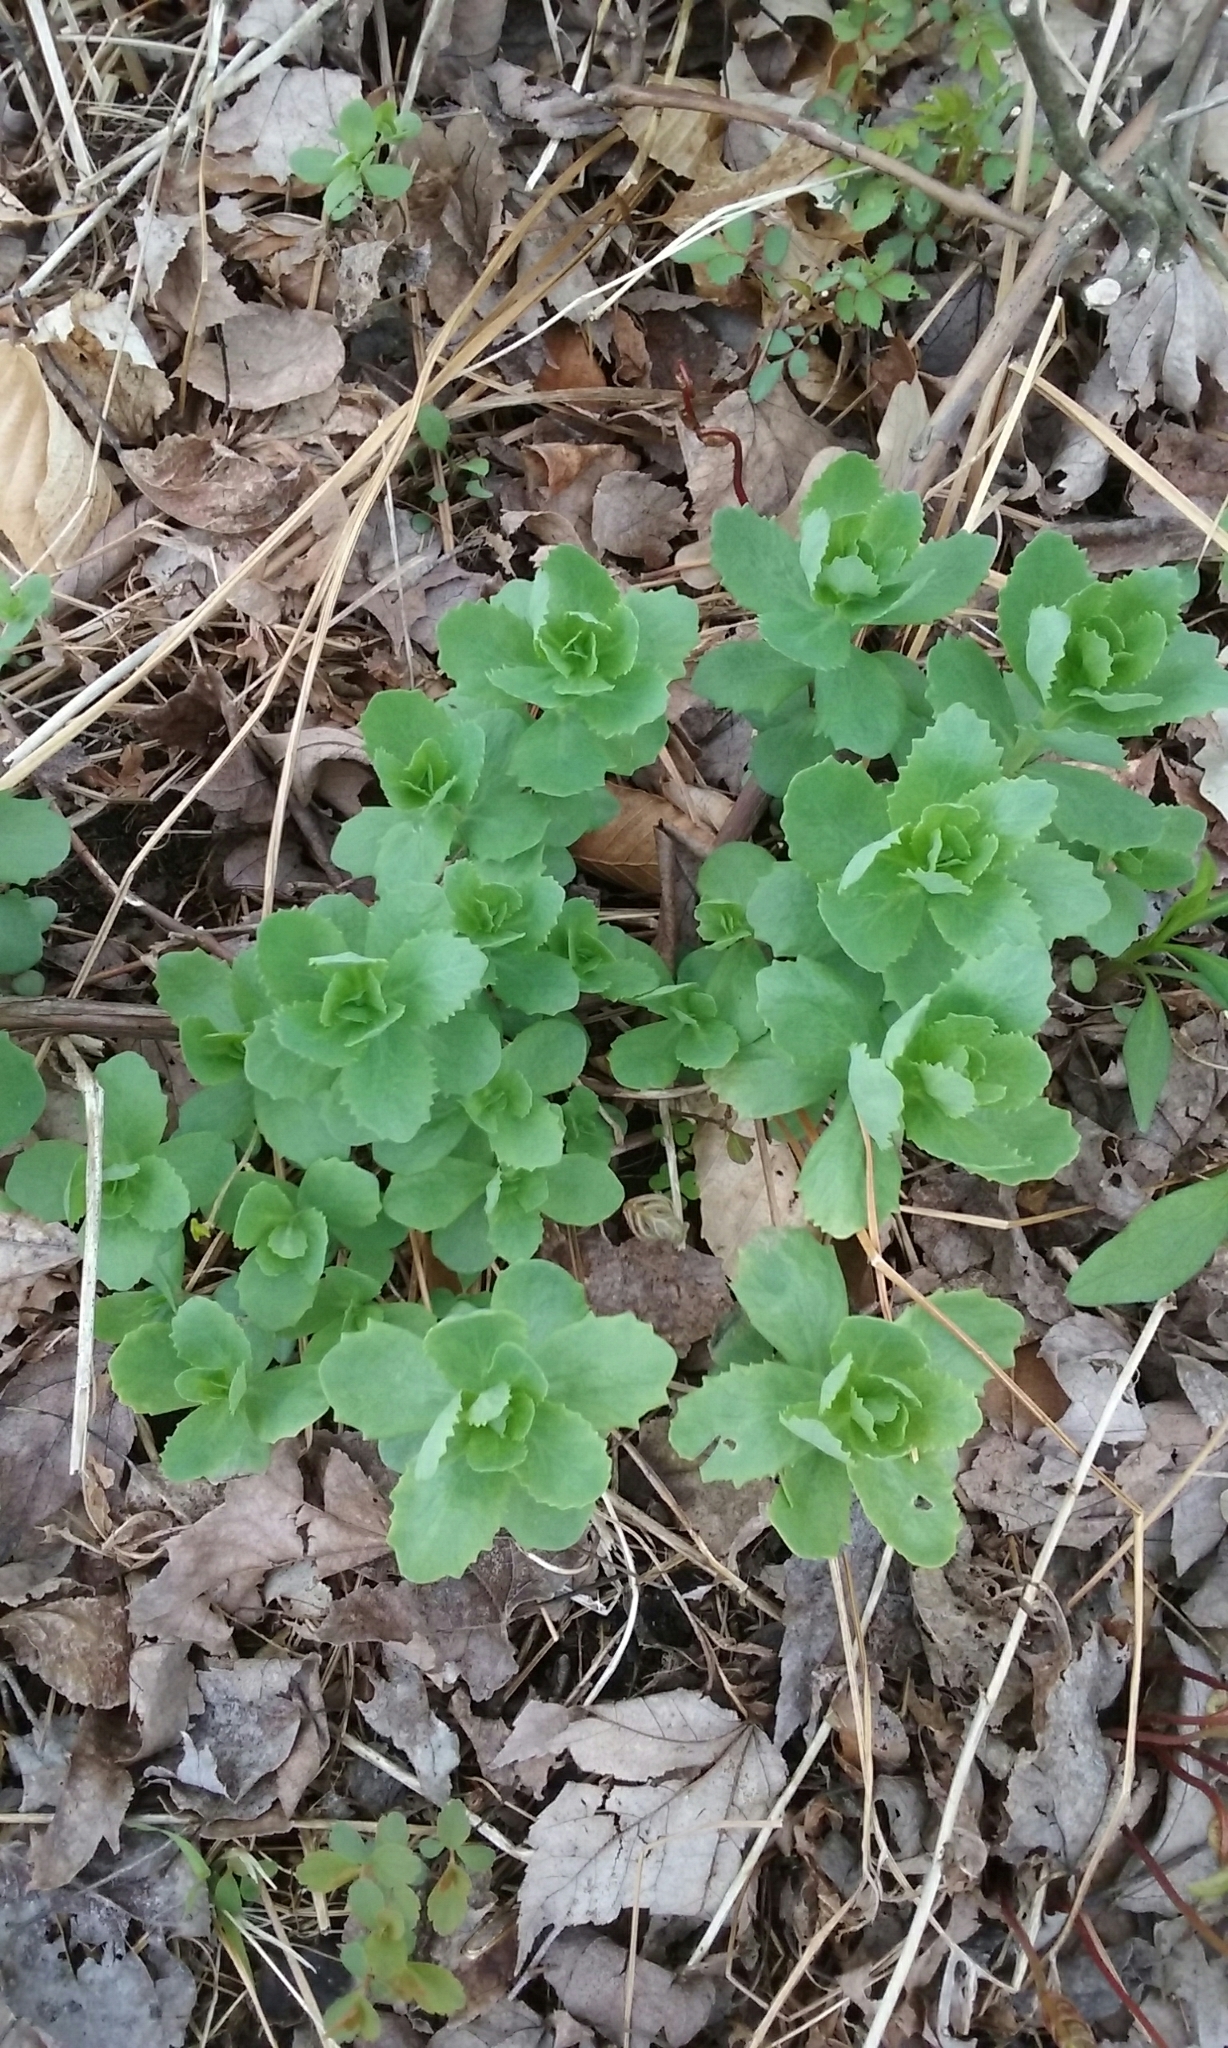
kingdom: Plantae
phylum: Tracheophyta
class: Magnoliopsida
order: Saxifragales
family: Crassulaceae
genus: Hylotelephium
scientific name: Hylotelephium telephium
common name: Live-forever
